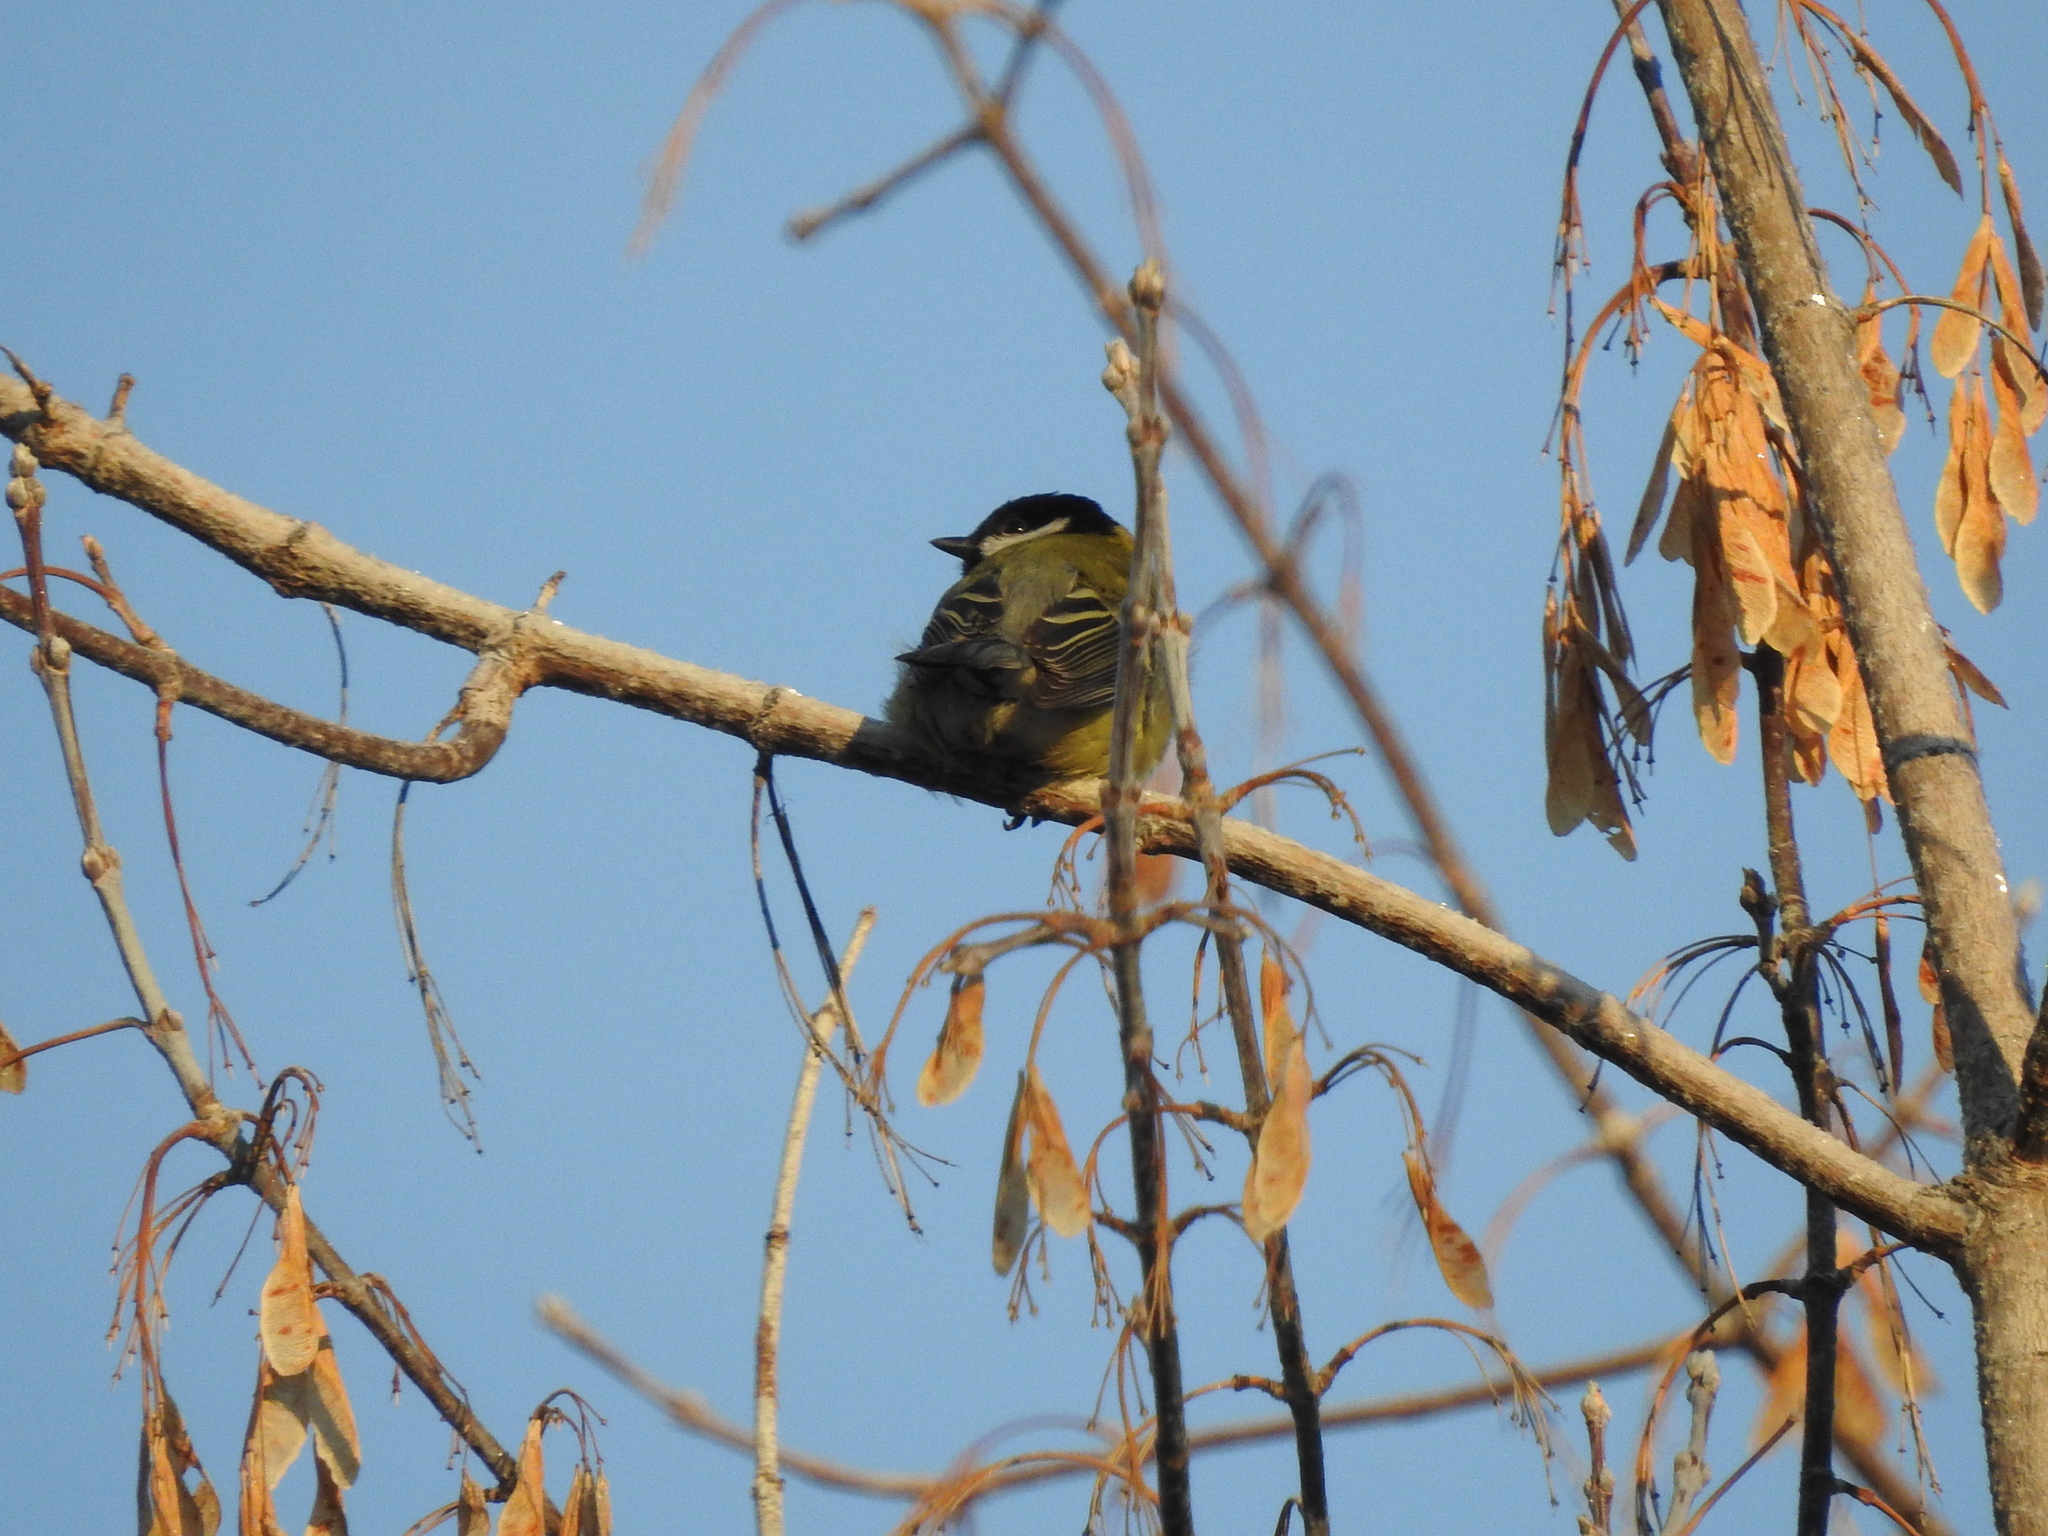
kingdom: Animalia
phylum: Chordata
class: Aves
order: Passeriformes
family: Paridae
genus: Parus
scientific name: Parus major
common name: Great tit
